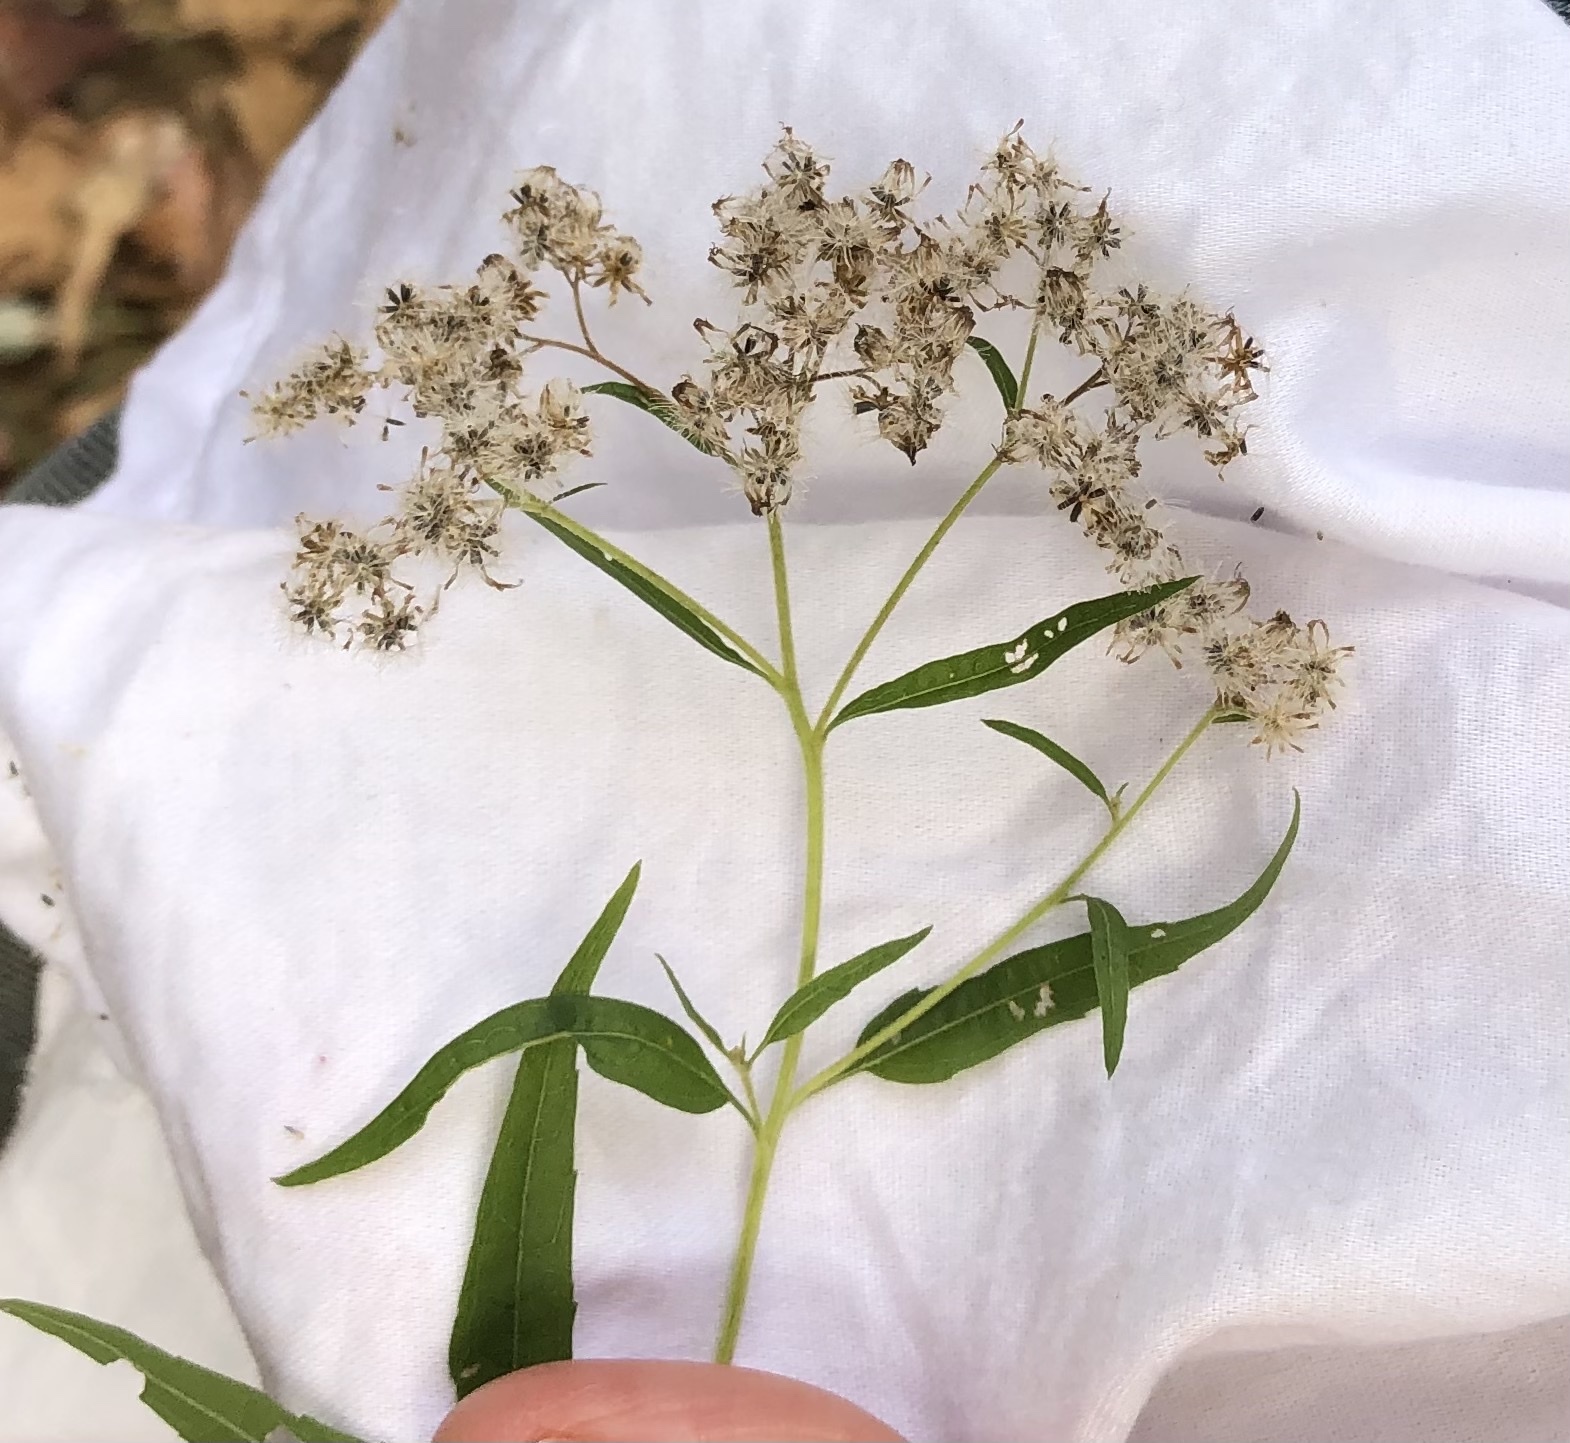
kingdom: Plantae
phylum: Tracheophyta
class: Magnoliopsida
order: Asterales
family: Asteraceae
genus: Eupatorium
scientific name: Eupatorium serotinum
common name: Late boneset
